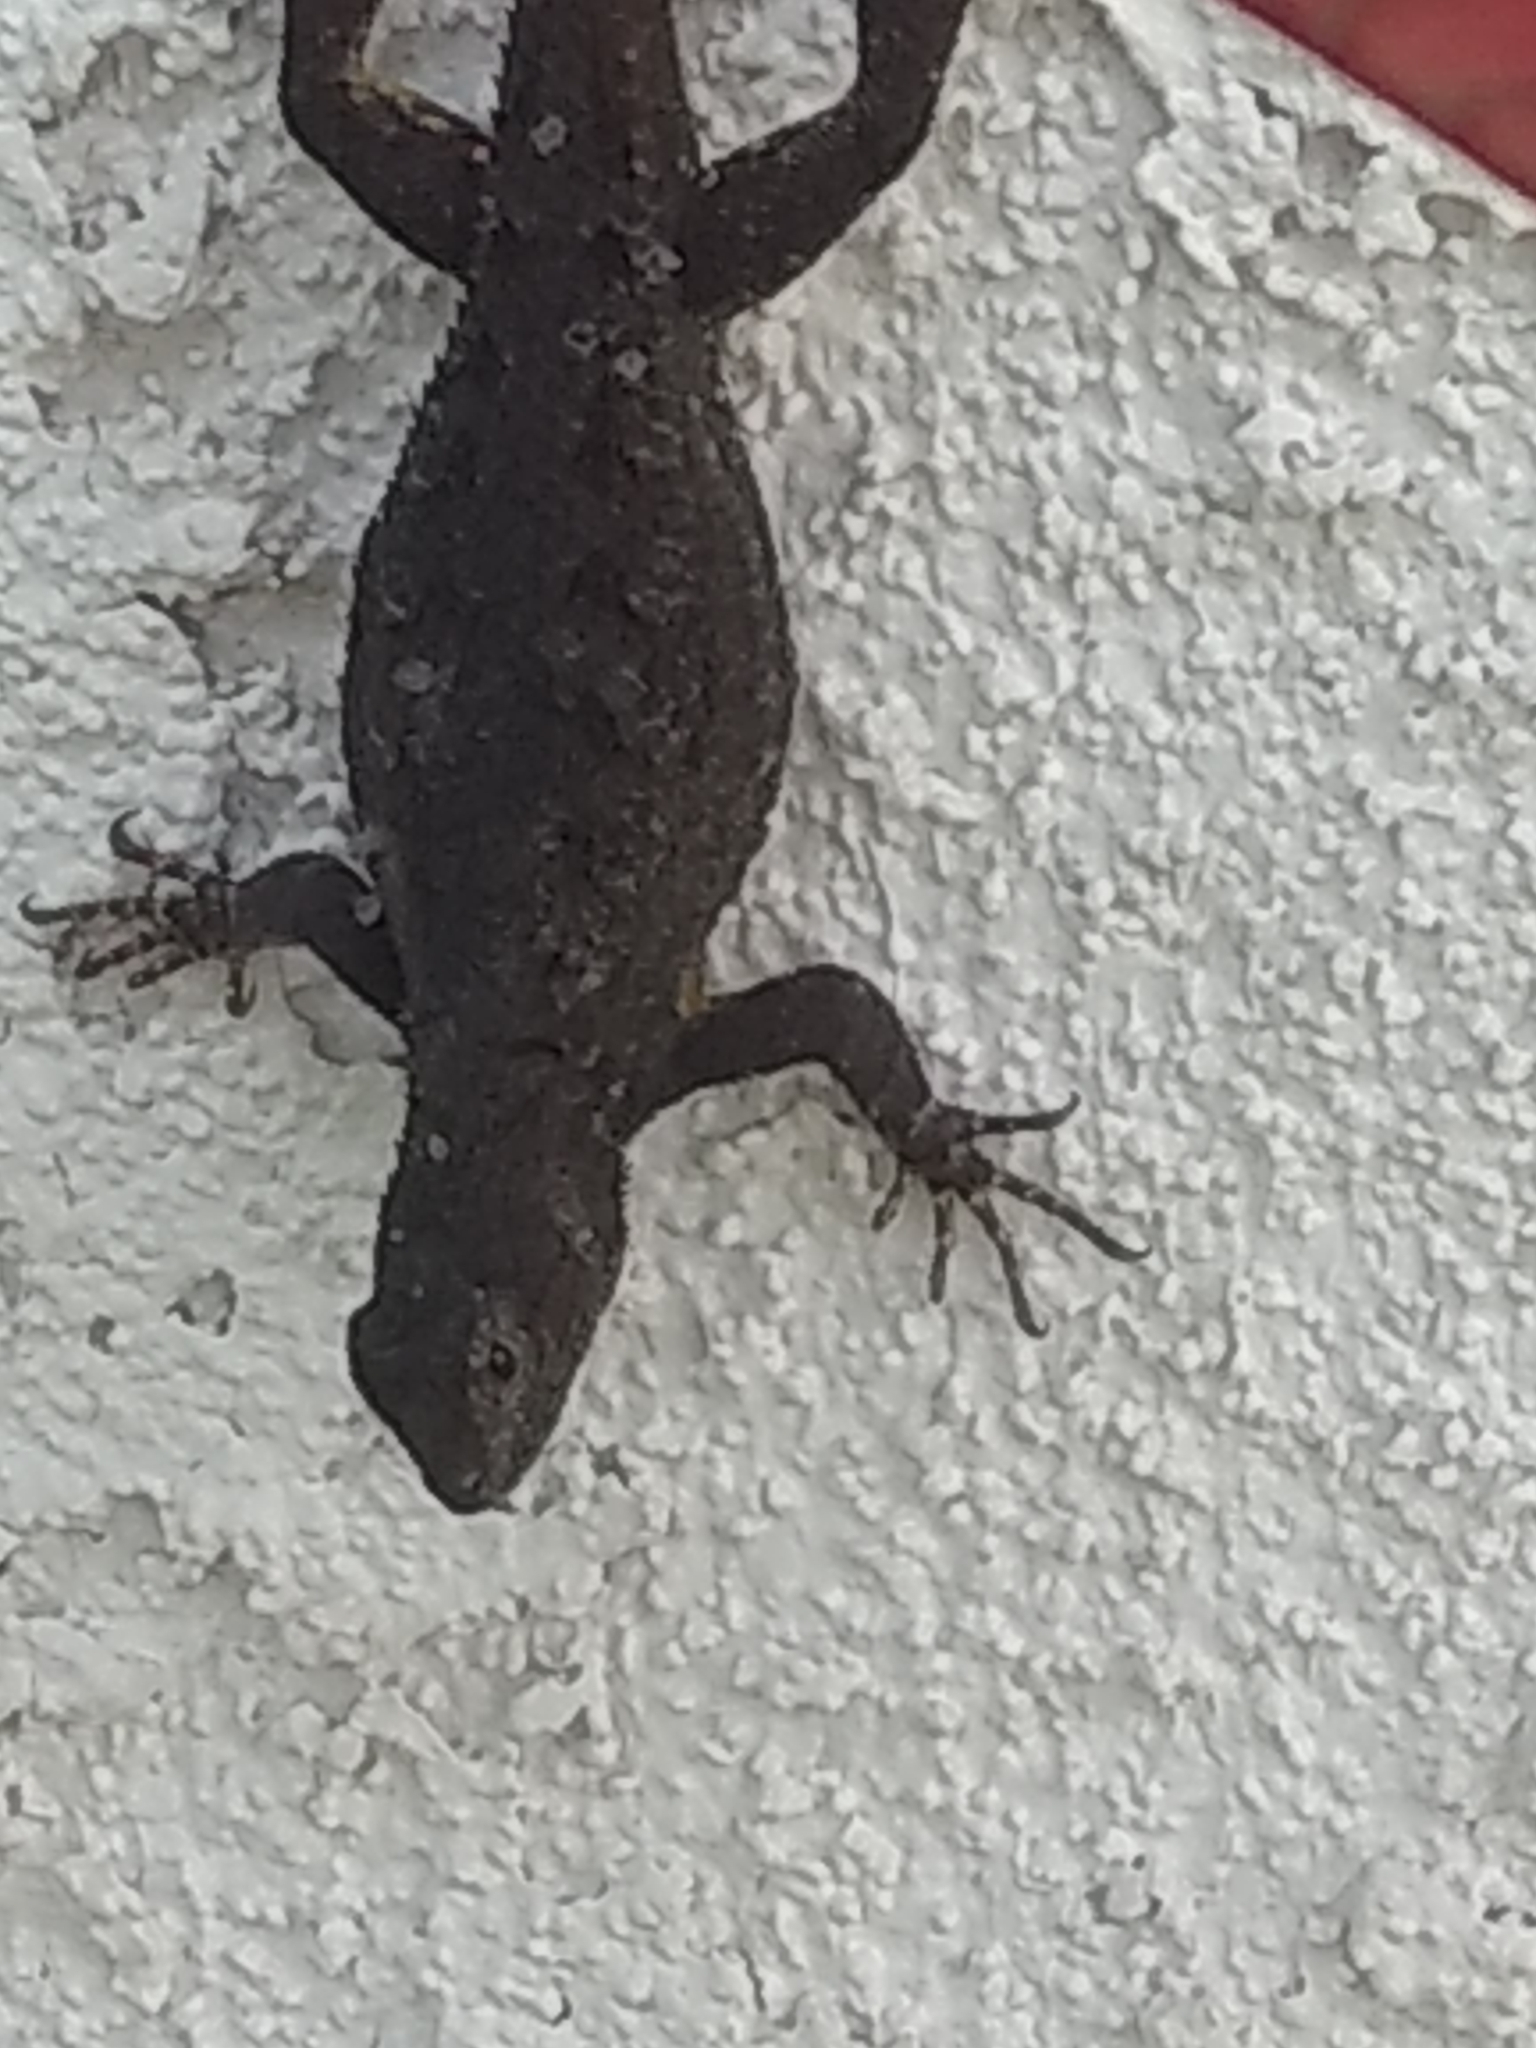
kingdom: Animalia
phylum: Chordata
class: Squamata
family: Phrynosomatidae
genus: Sceloporus
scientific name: Sceloporus occidentalis
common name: Western fence lizard
